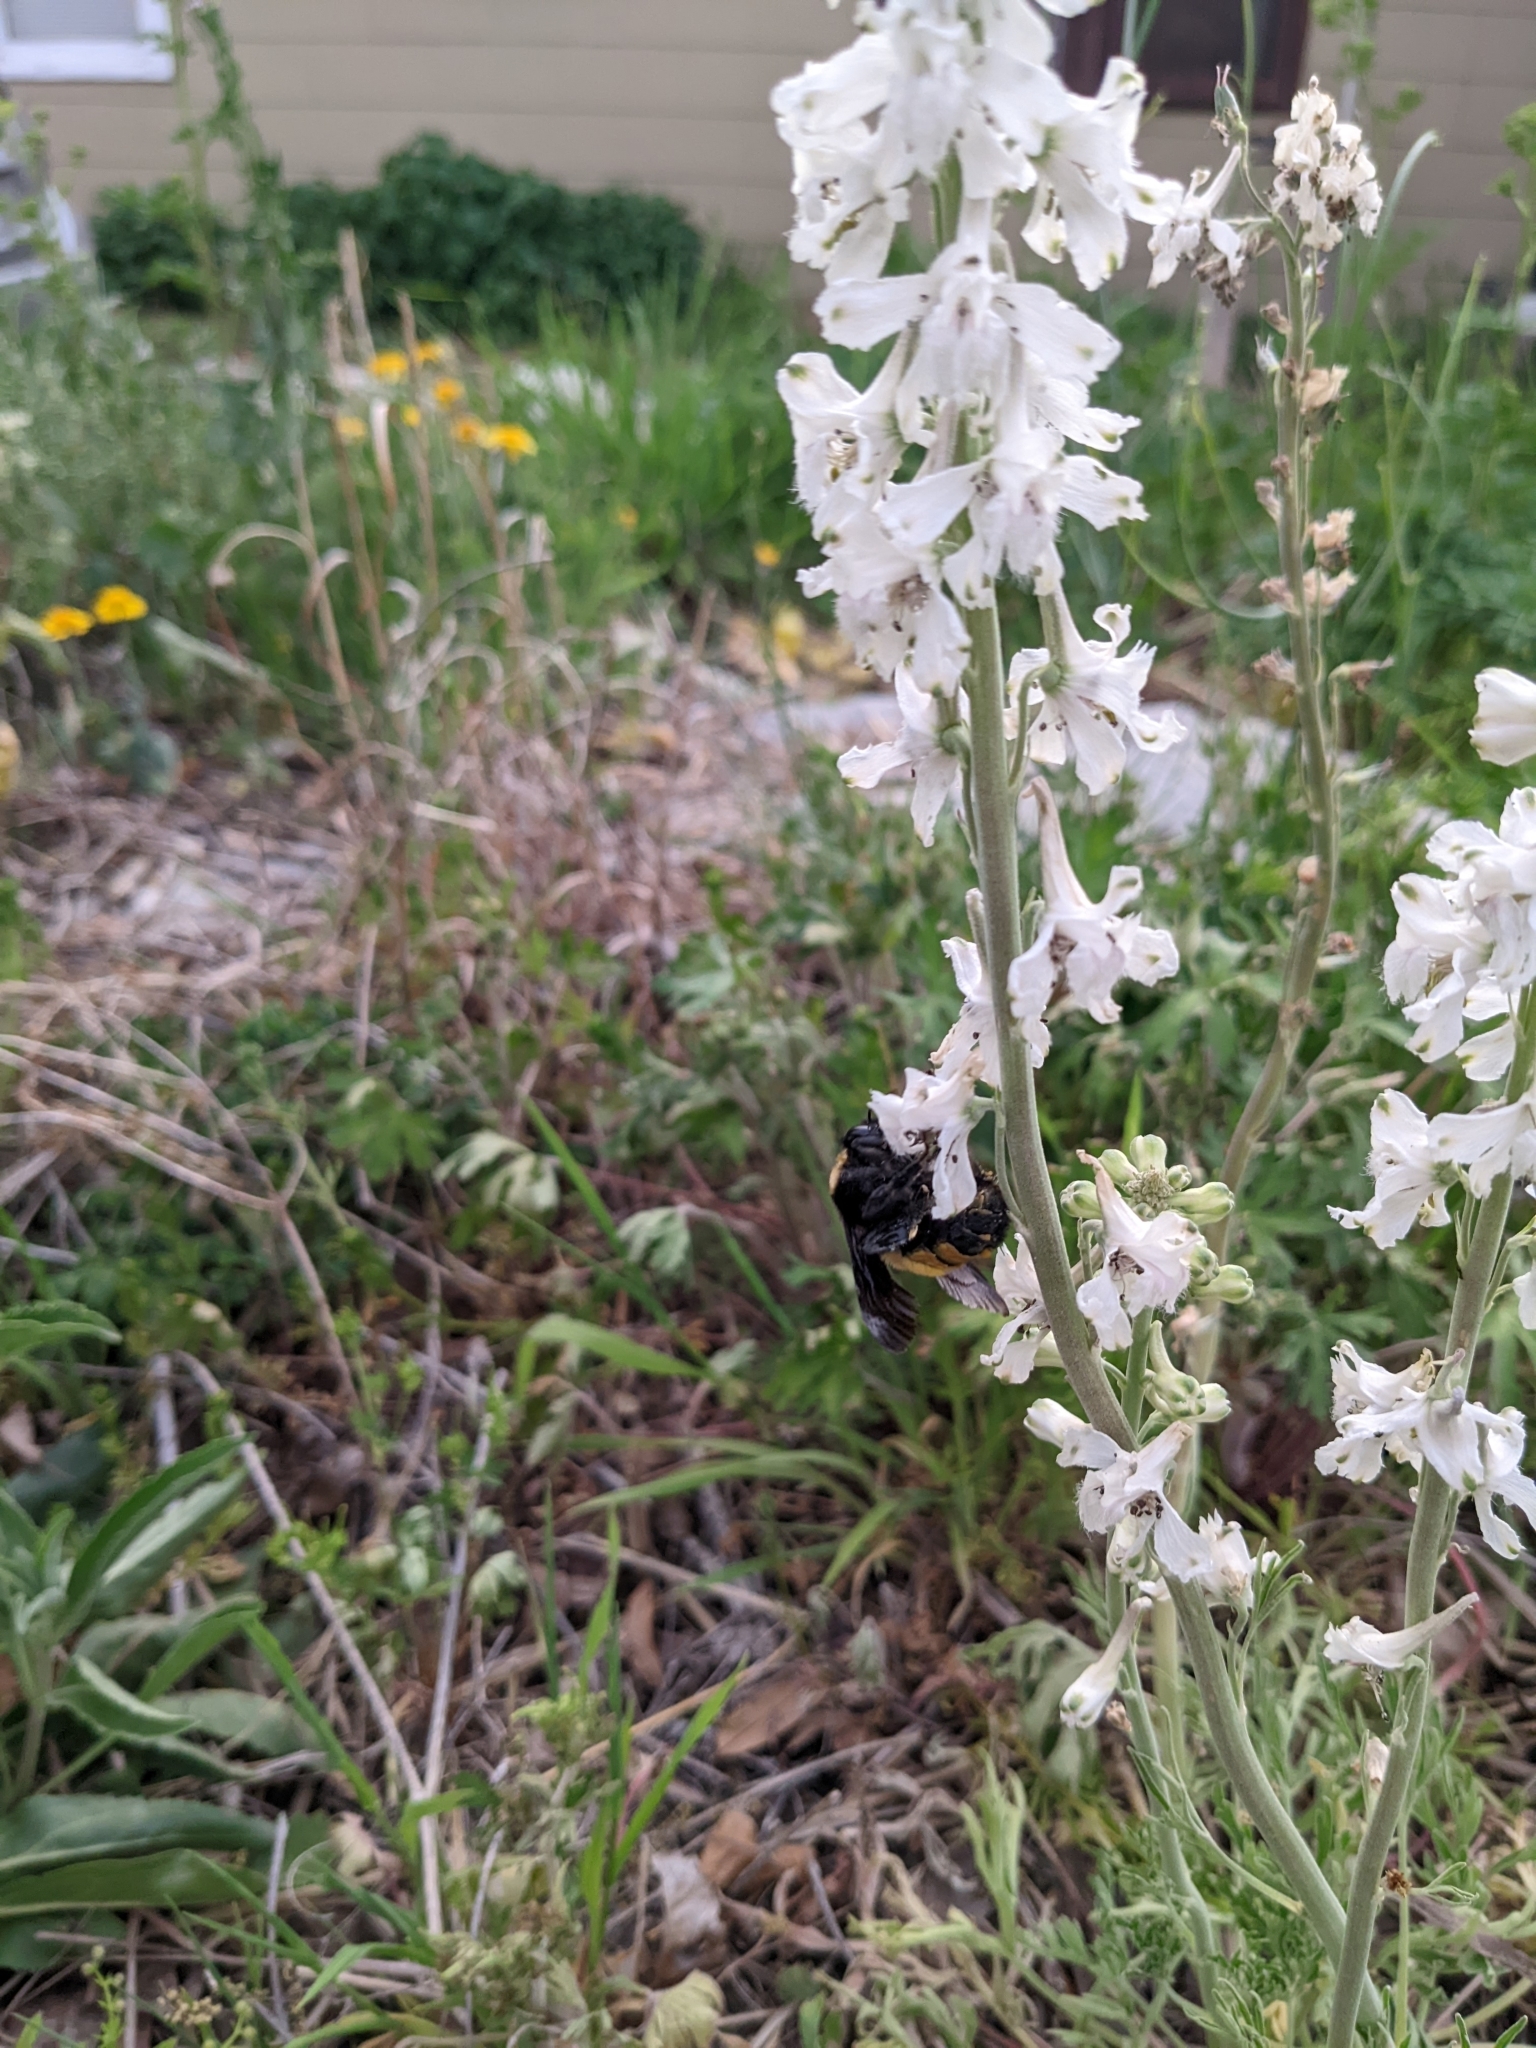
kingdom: Animalia
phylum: Arthropoda
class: Insecta
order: Hymenoptera
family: Apidae
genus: Bombus
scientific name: Bombus sonorus
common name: Sonoran bumble bee
